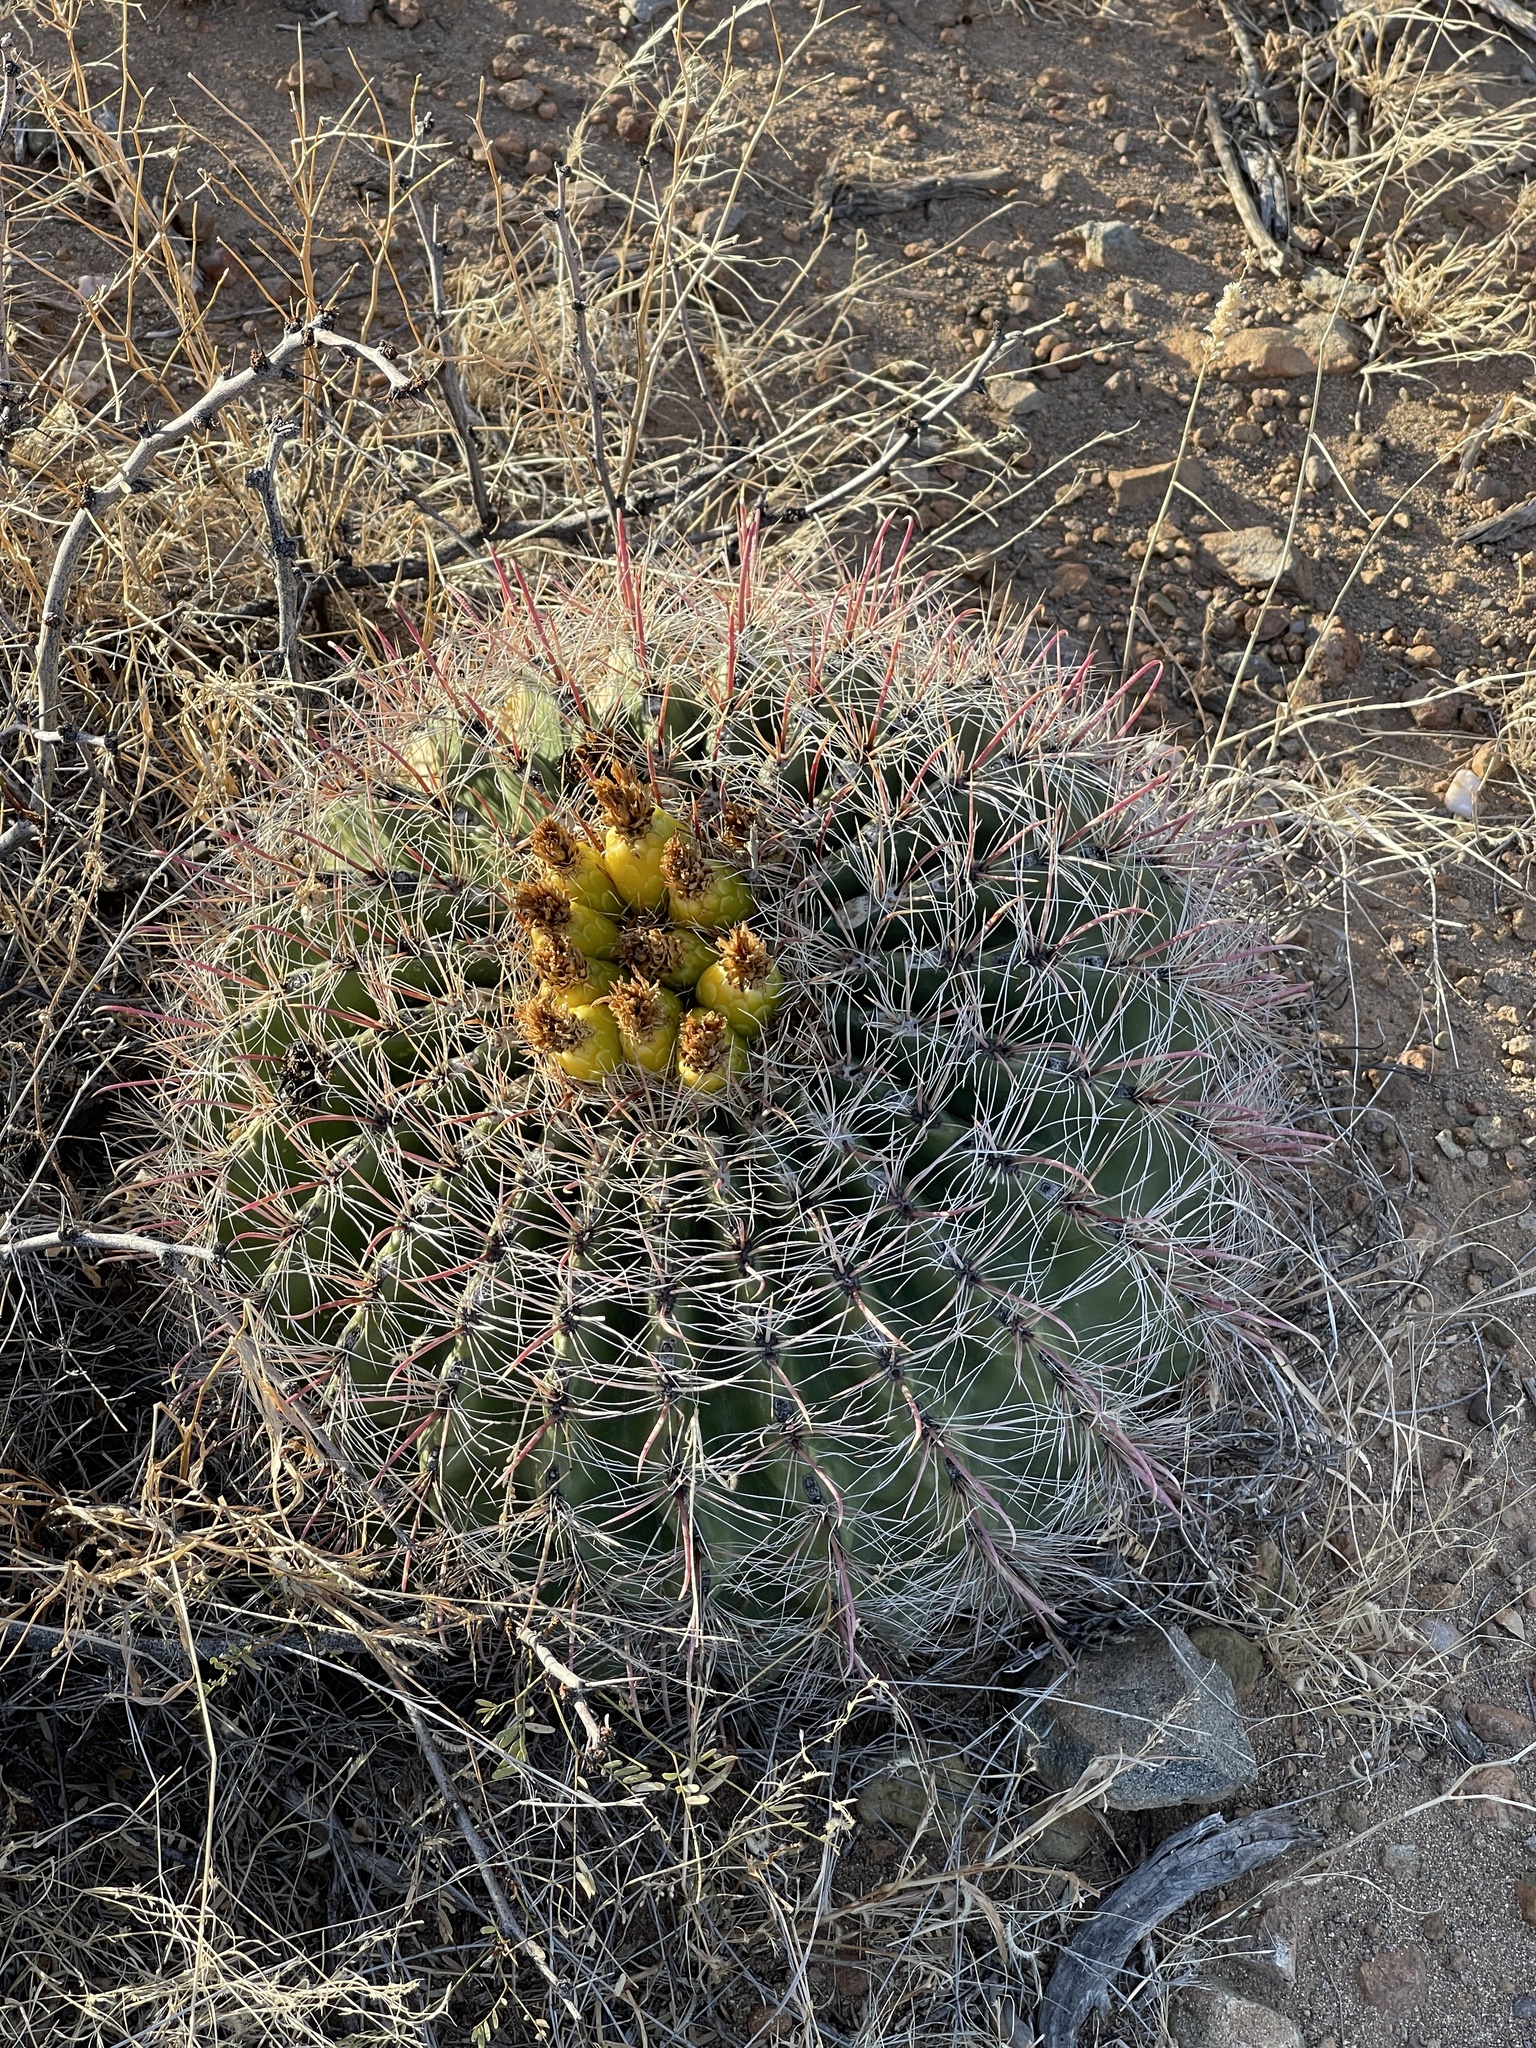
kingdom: Plantae
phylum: Tracheophyta
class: Magnoliopsida
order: Caryophyllales
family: Cactaceae
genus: Ferocactus
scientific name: Ferocactus wislizeni
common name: Candy barrel cactus
